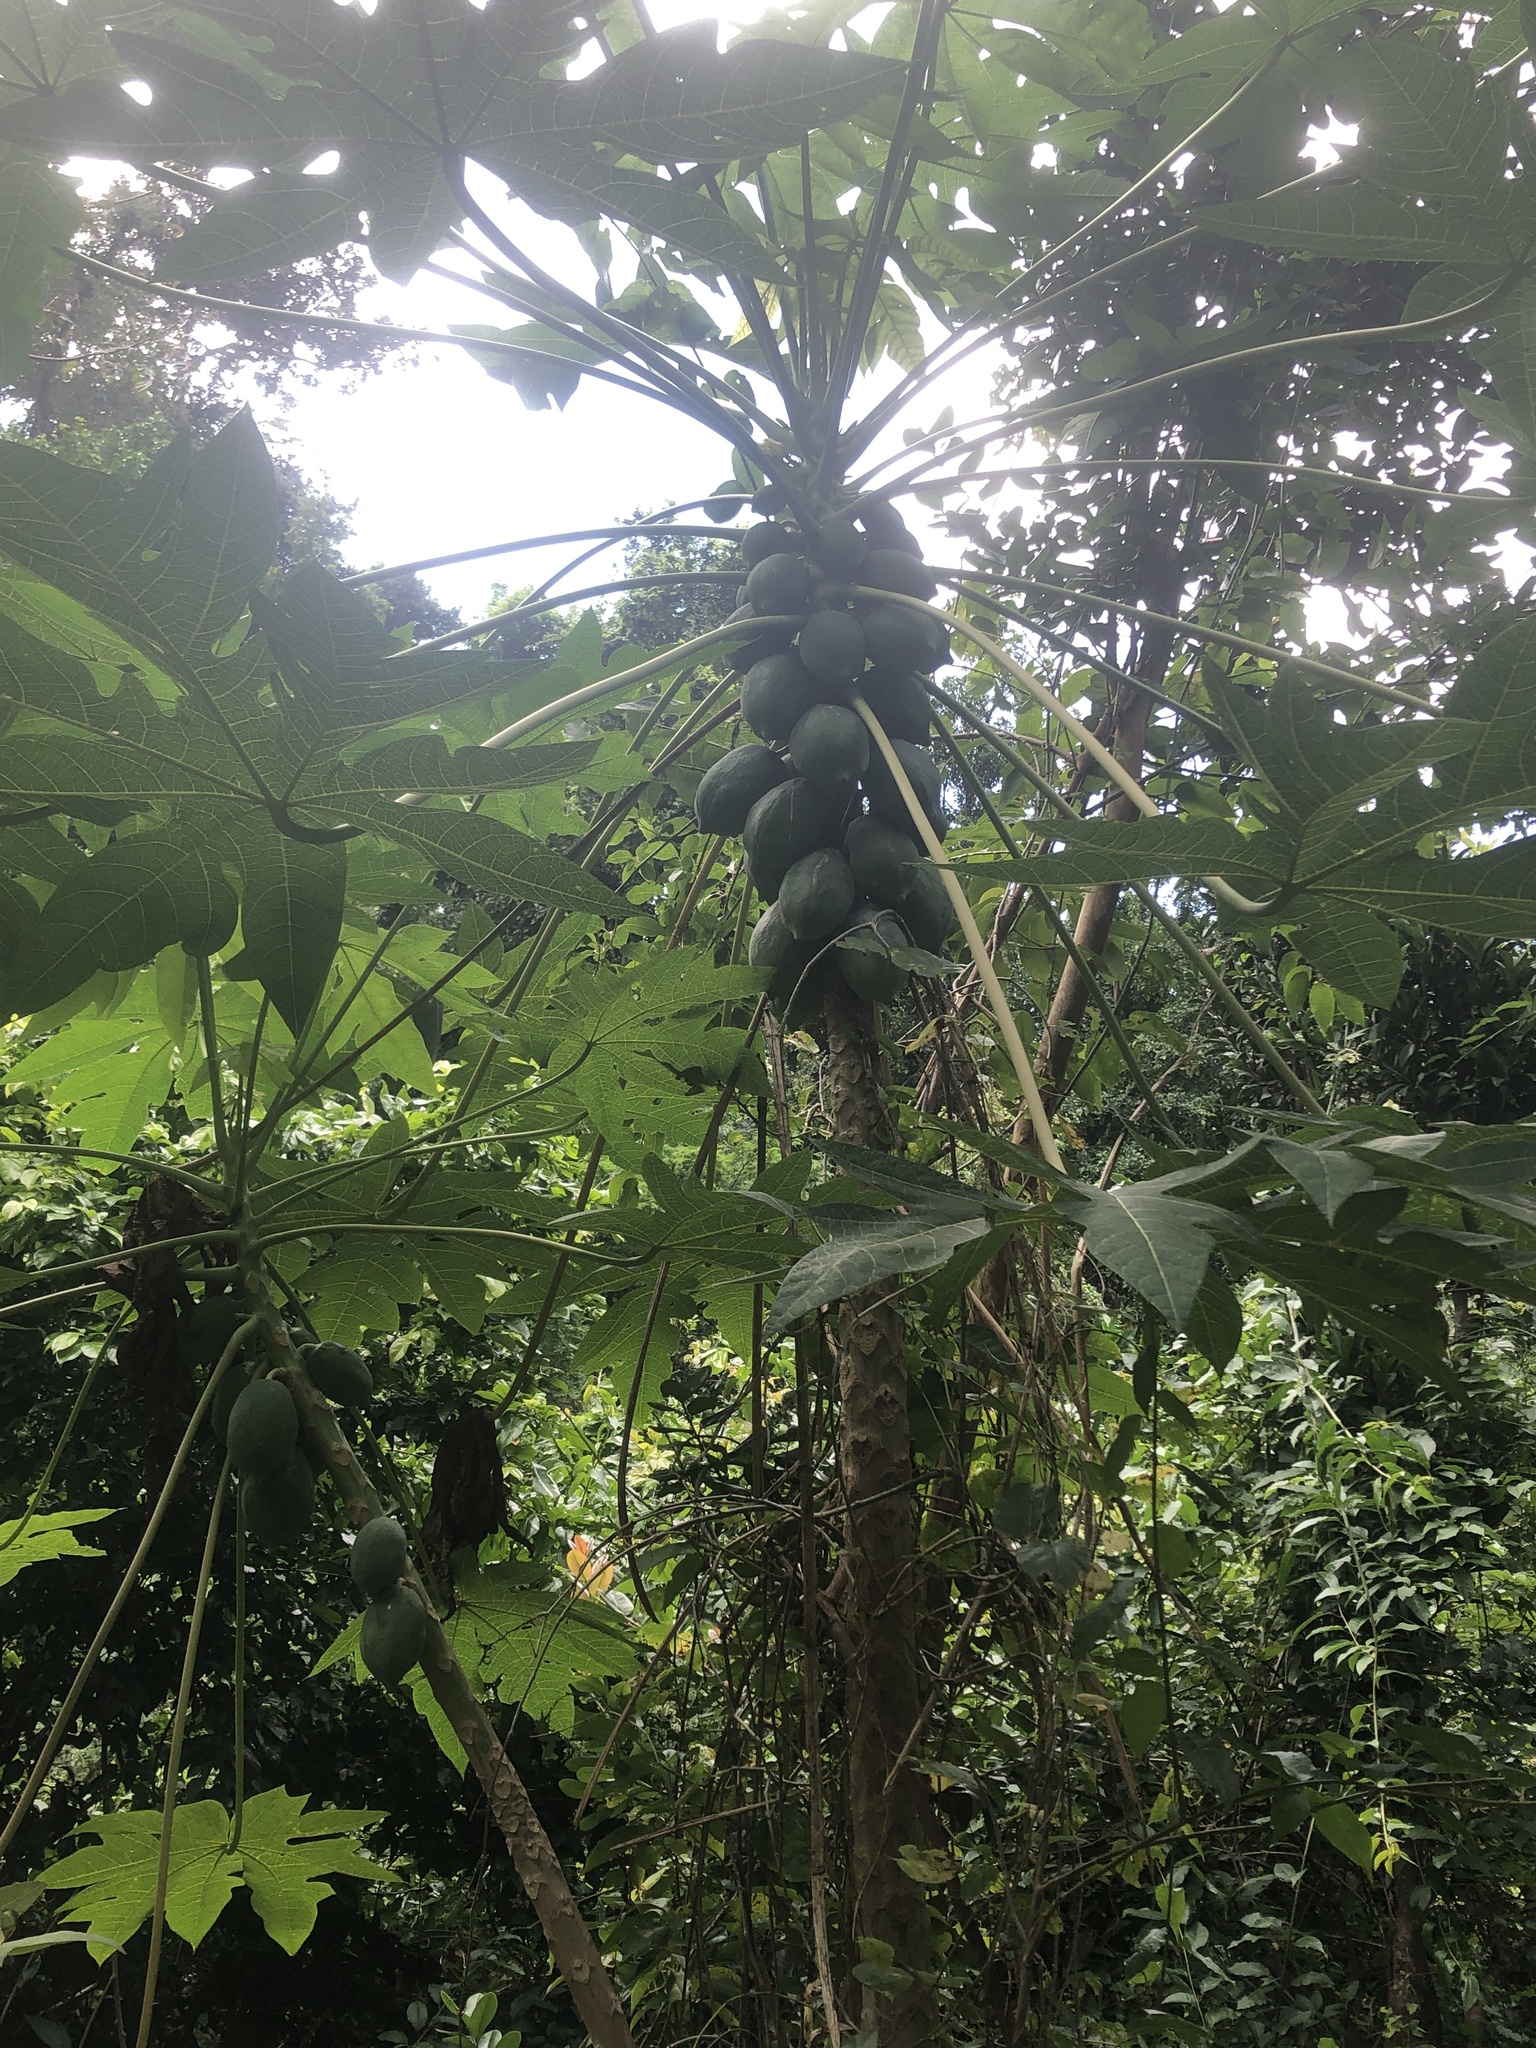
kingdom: Plantae
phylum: Tracheophyta
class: Magnoliopsida
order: Brassicales
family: Caricaceae
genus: Carica
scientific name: Carica papaya
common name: Papaya
